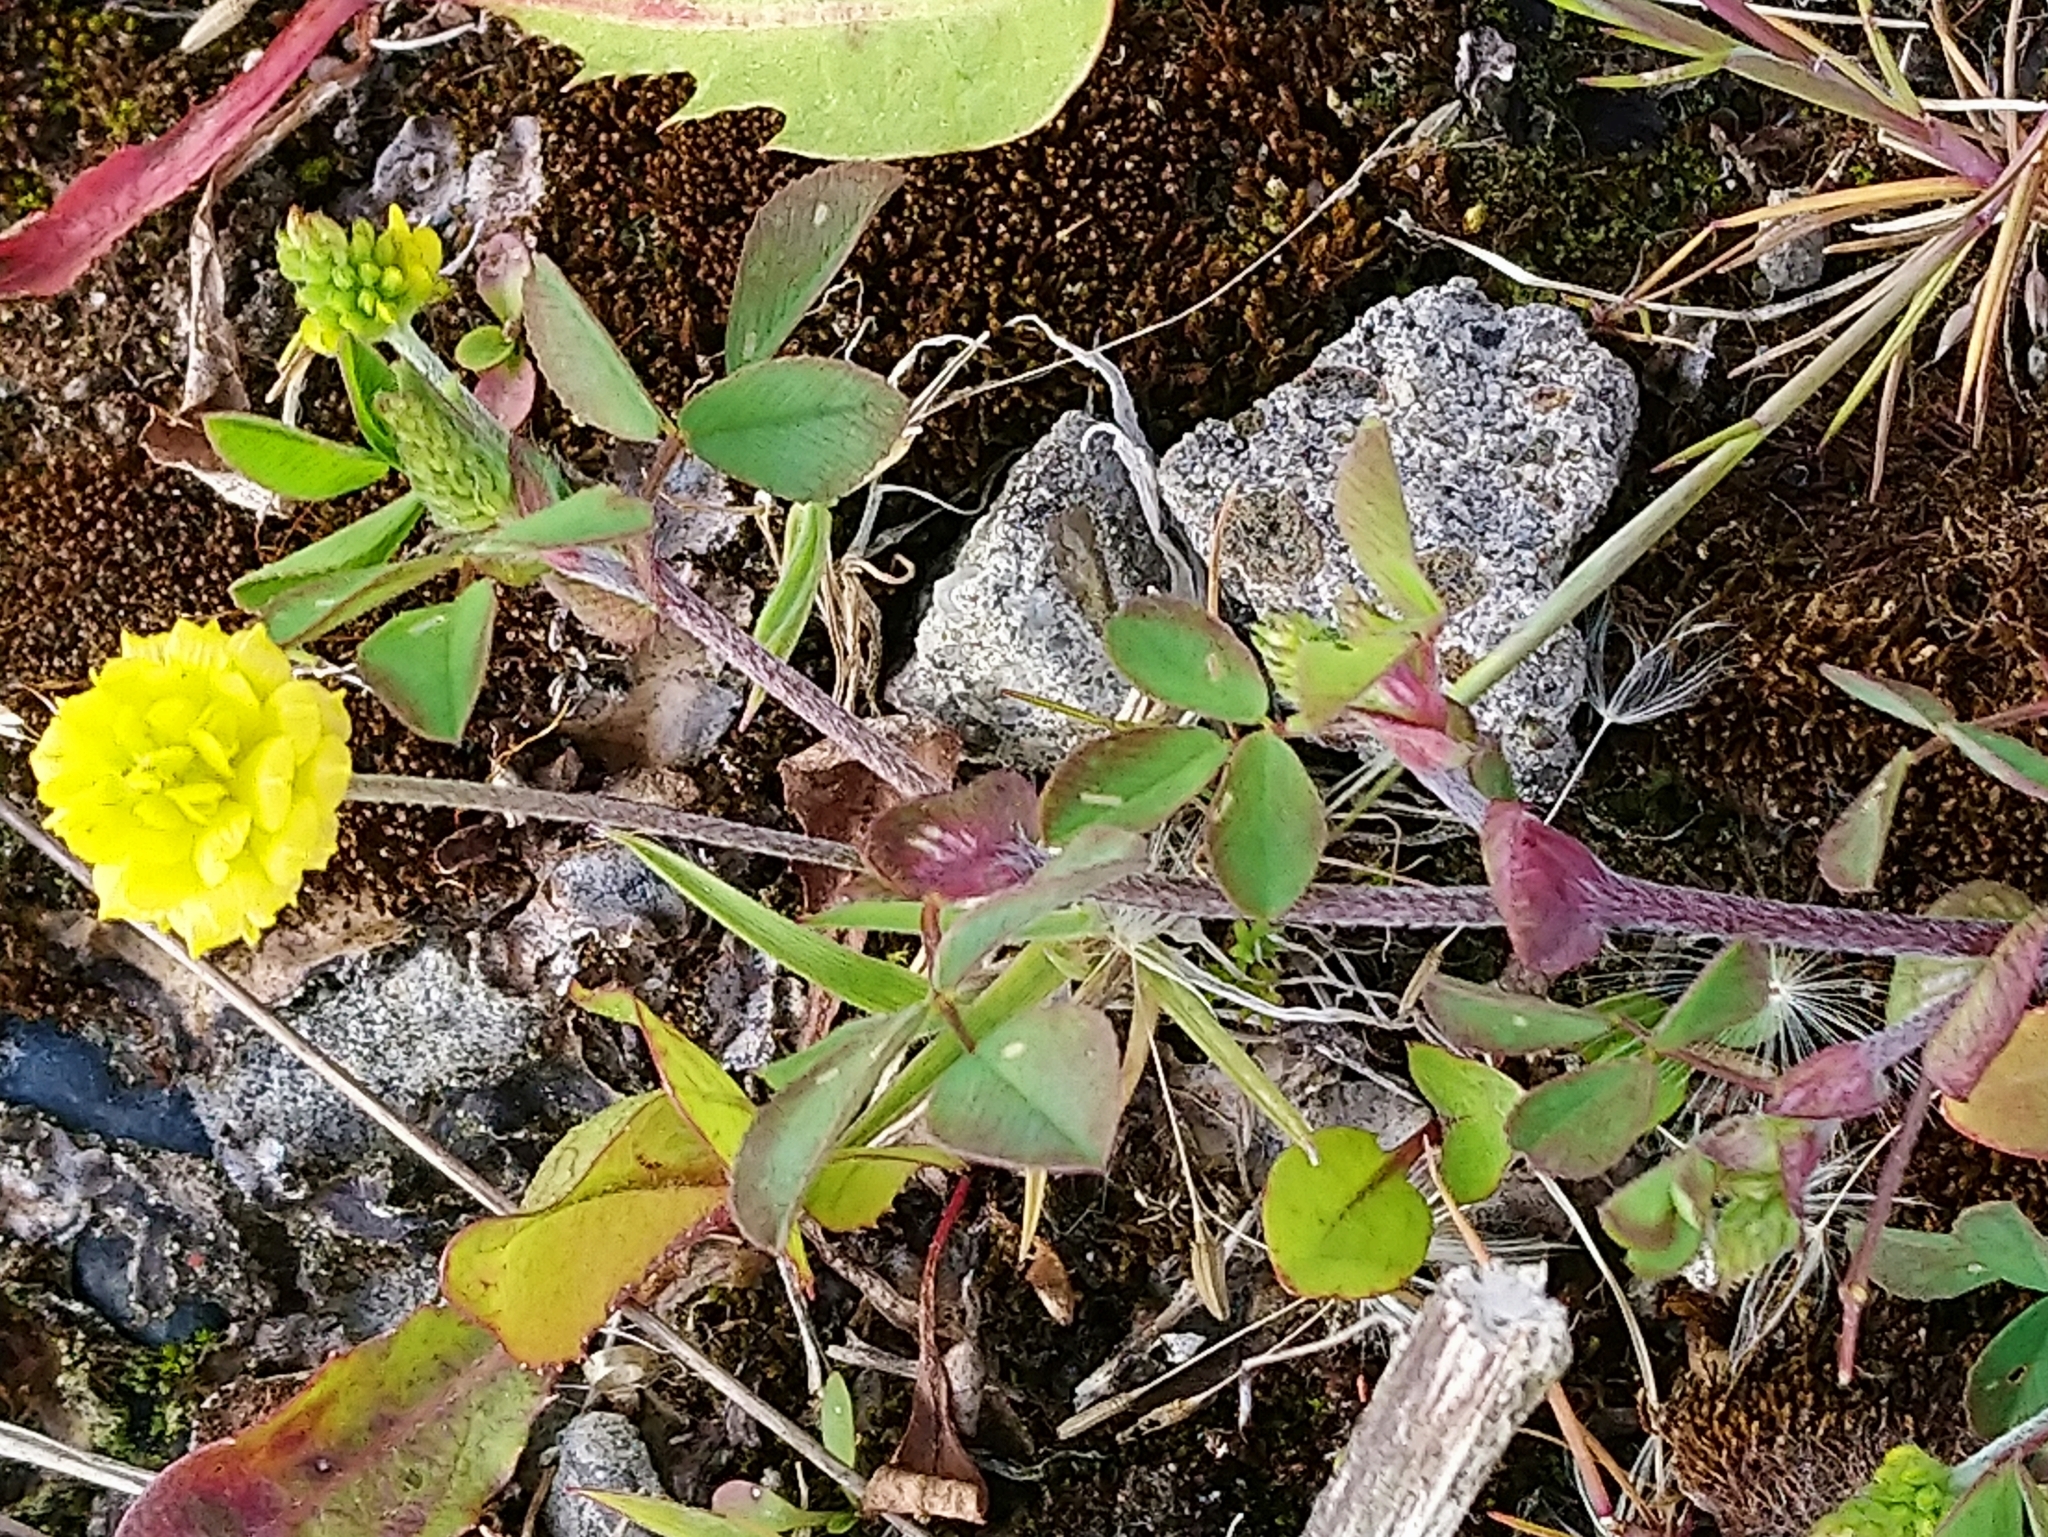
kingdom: Plantae
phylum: Tracheophyta
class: Magnoliopsida
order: Fabales
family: Fabaceae
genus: Trifolium
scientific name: Trifolium campestre
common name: Field clover
